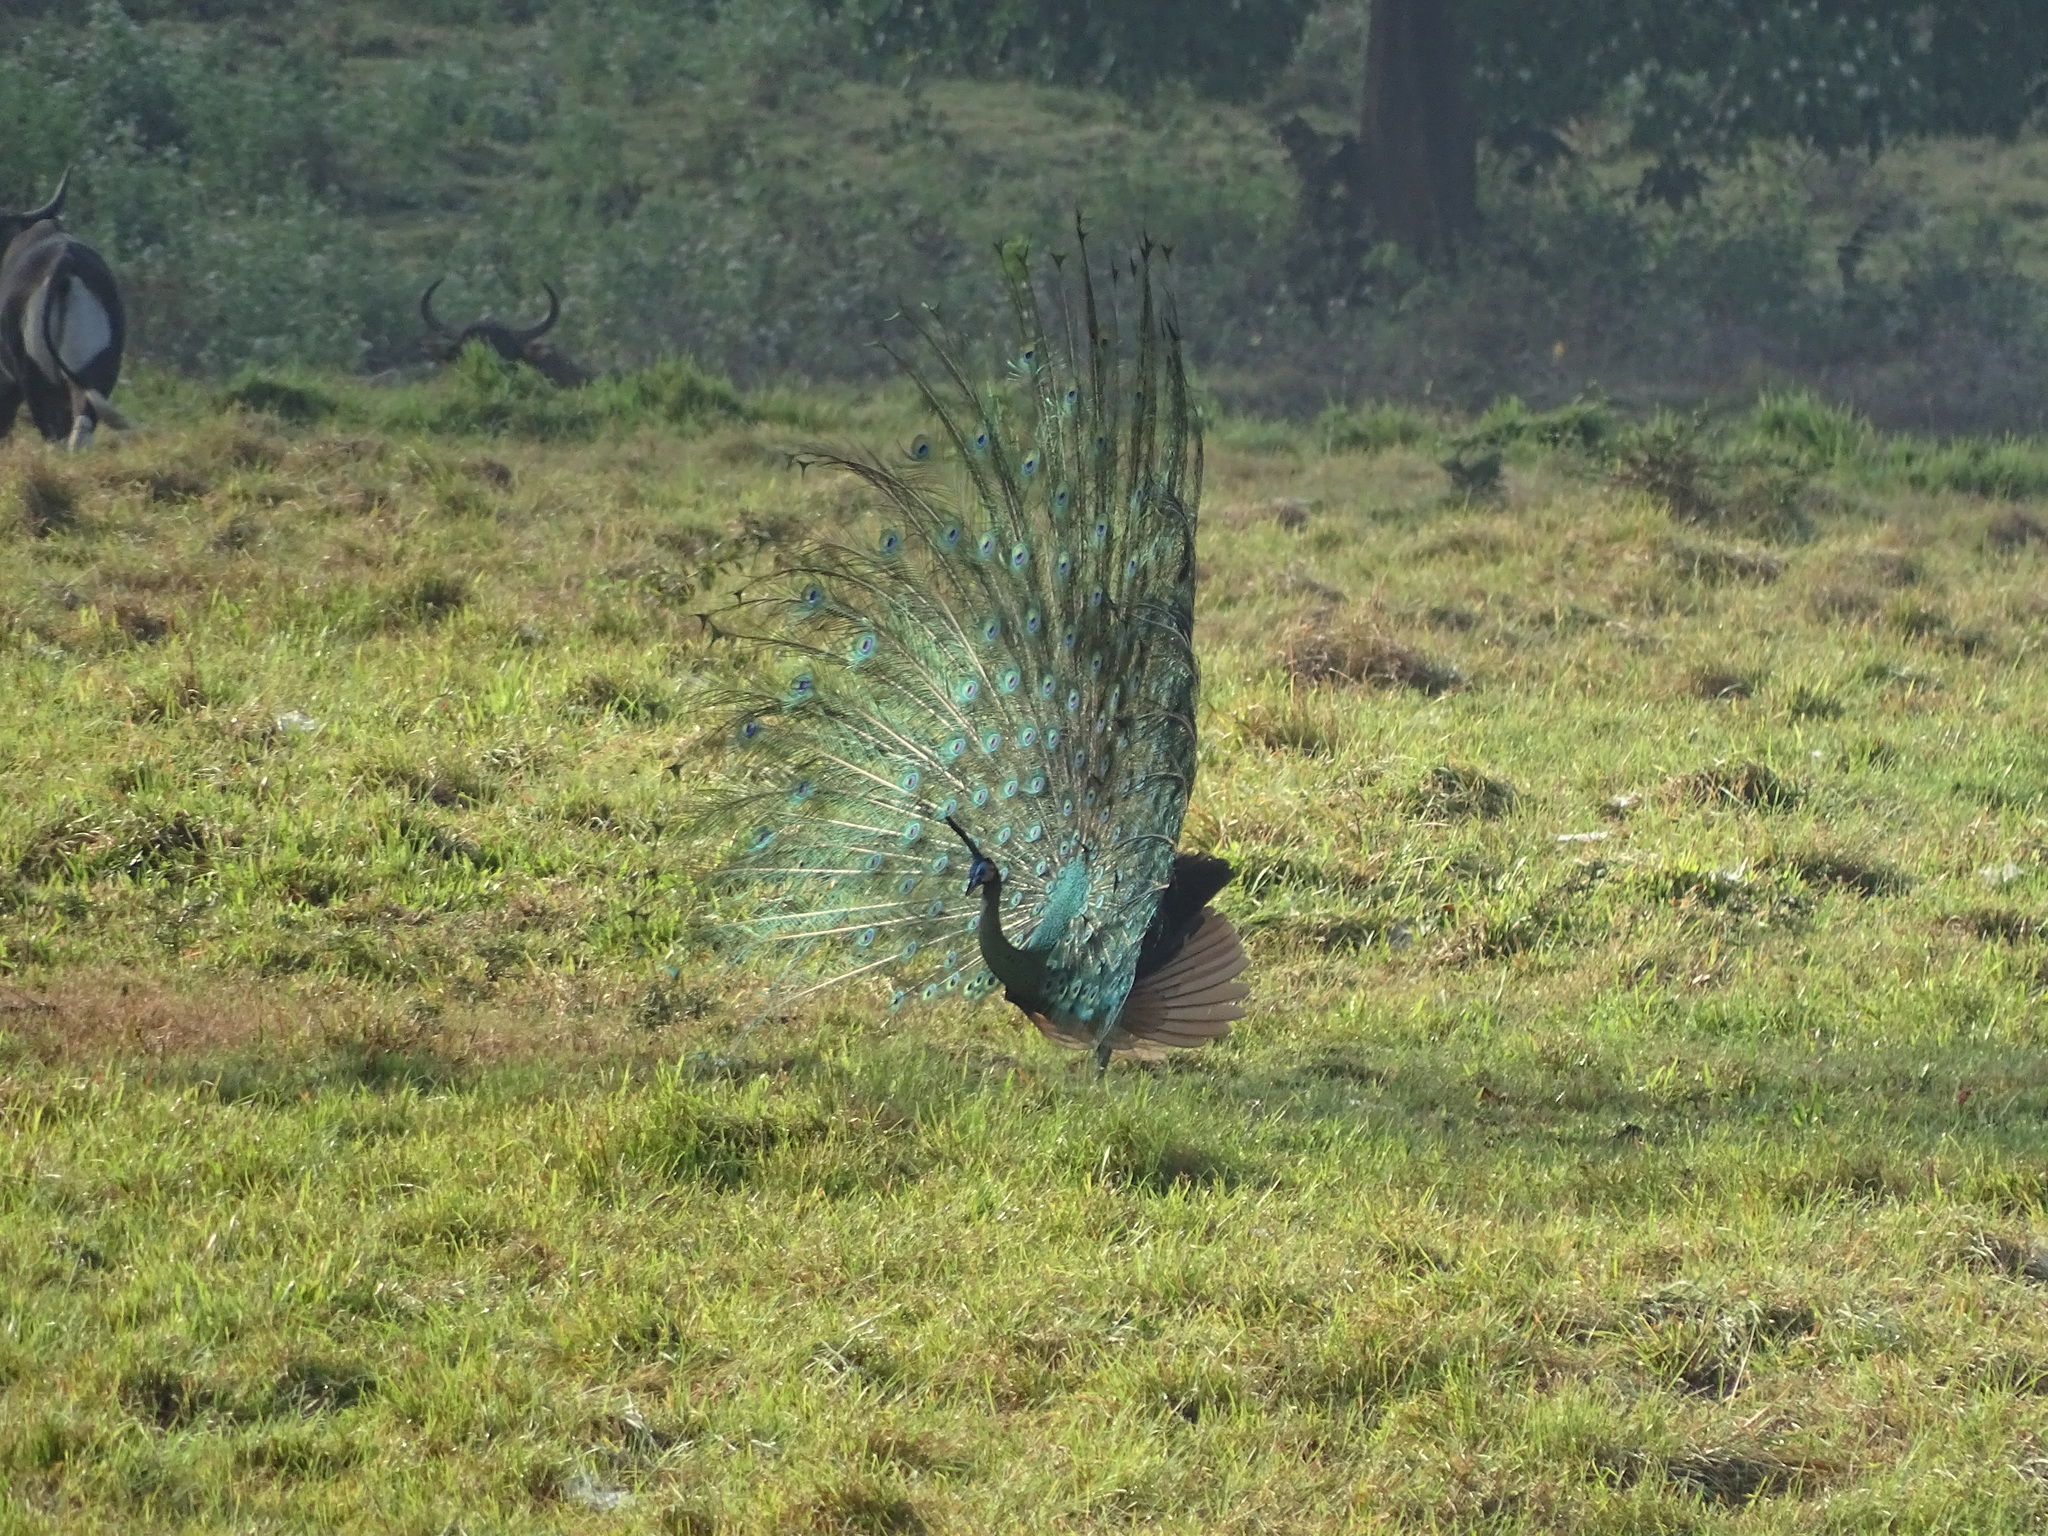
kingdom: Animalia
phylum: Chordata
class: Aves
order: Galliformes
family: Phasianidae
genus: Pavo
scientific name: Pavo muticus
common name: Green peafowl
